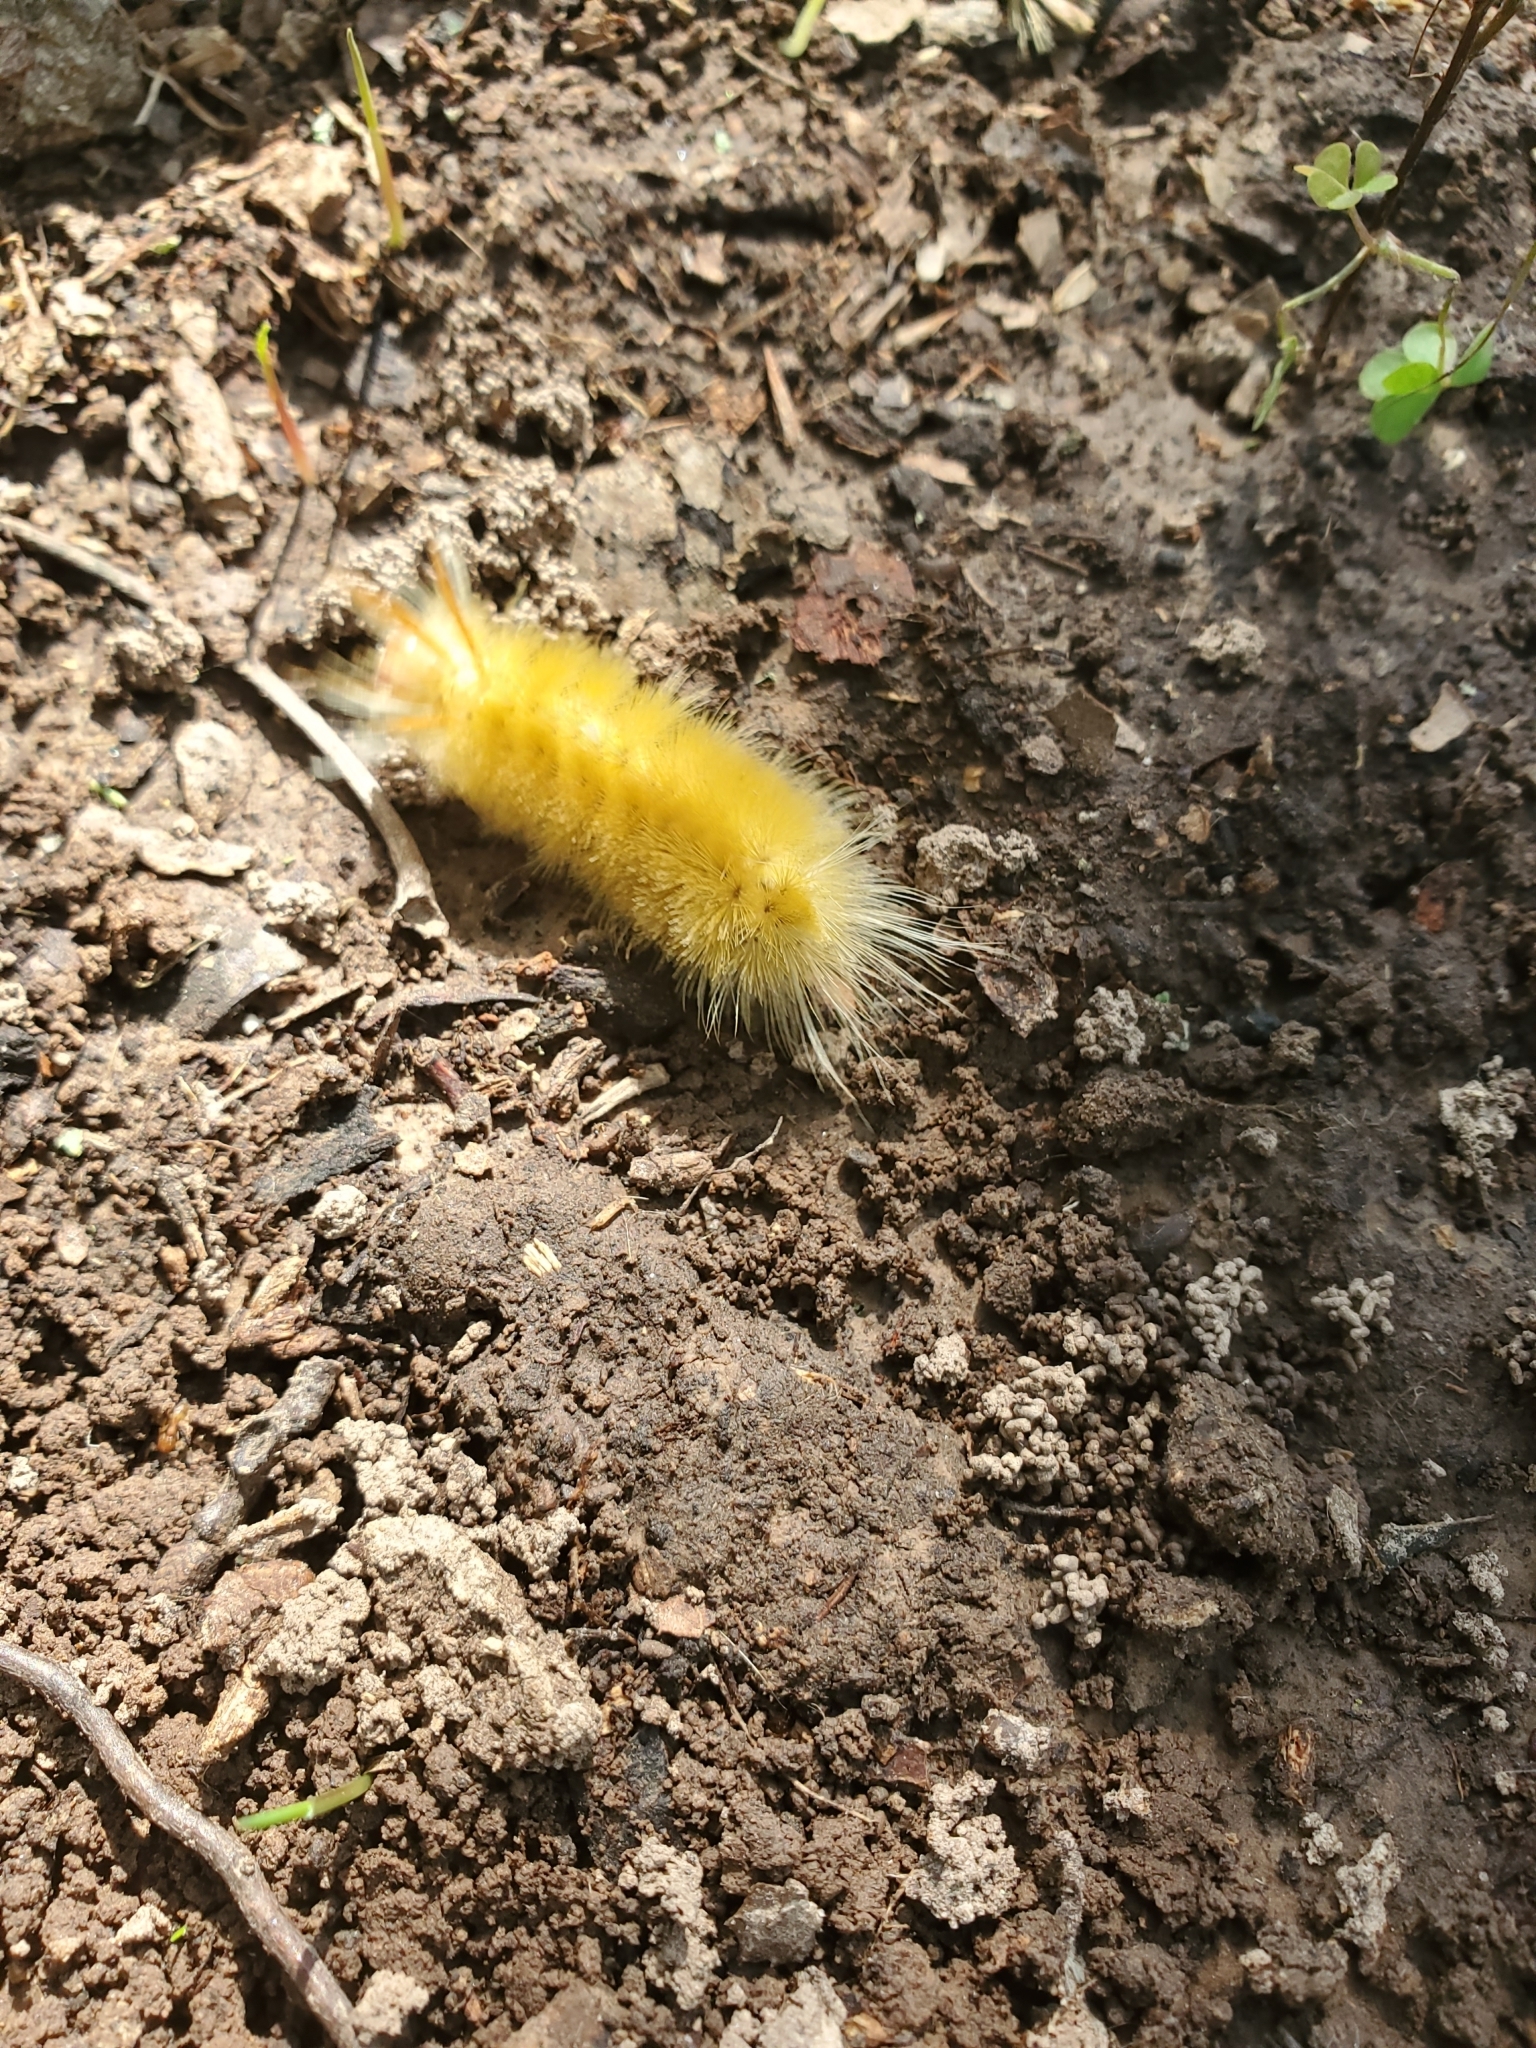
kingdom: Animalia
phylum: Arthropoda
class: Insecta
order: Lepidoptera
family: Erebidae
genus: Halysidota
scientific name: Halysidota harrisii
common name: Sycamore tussock moth
